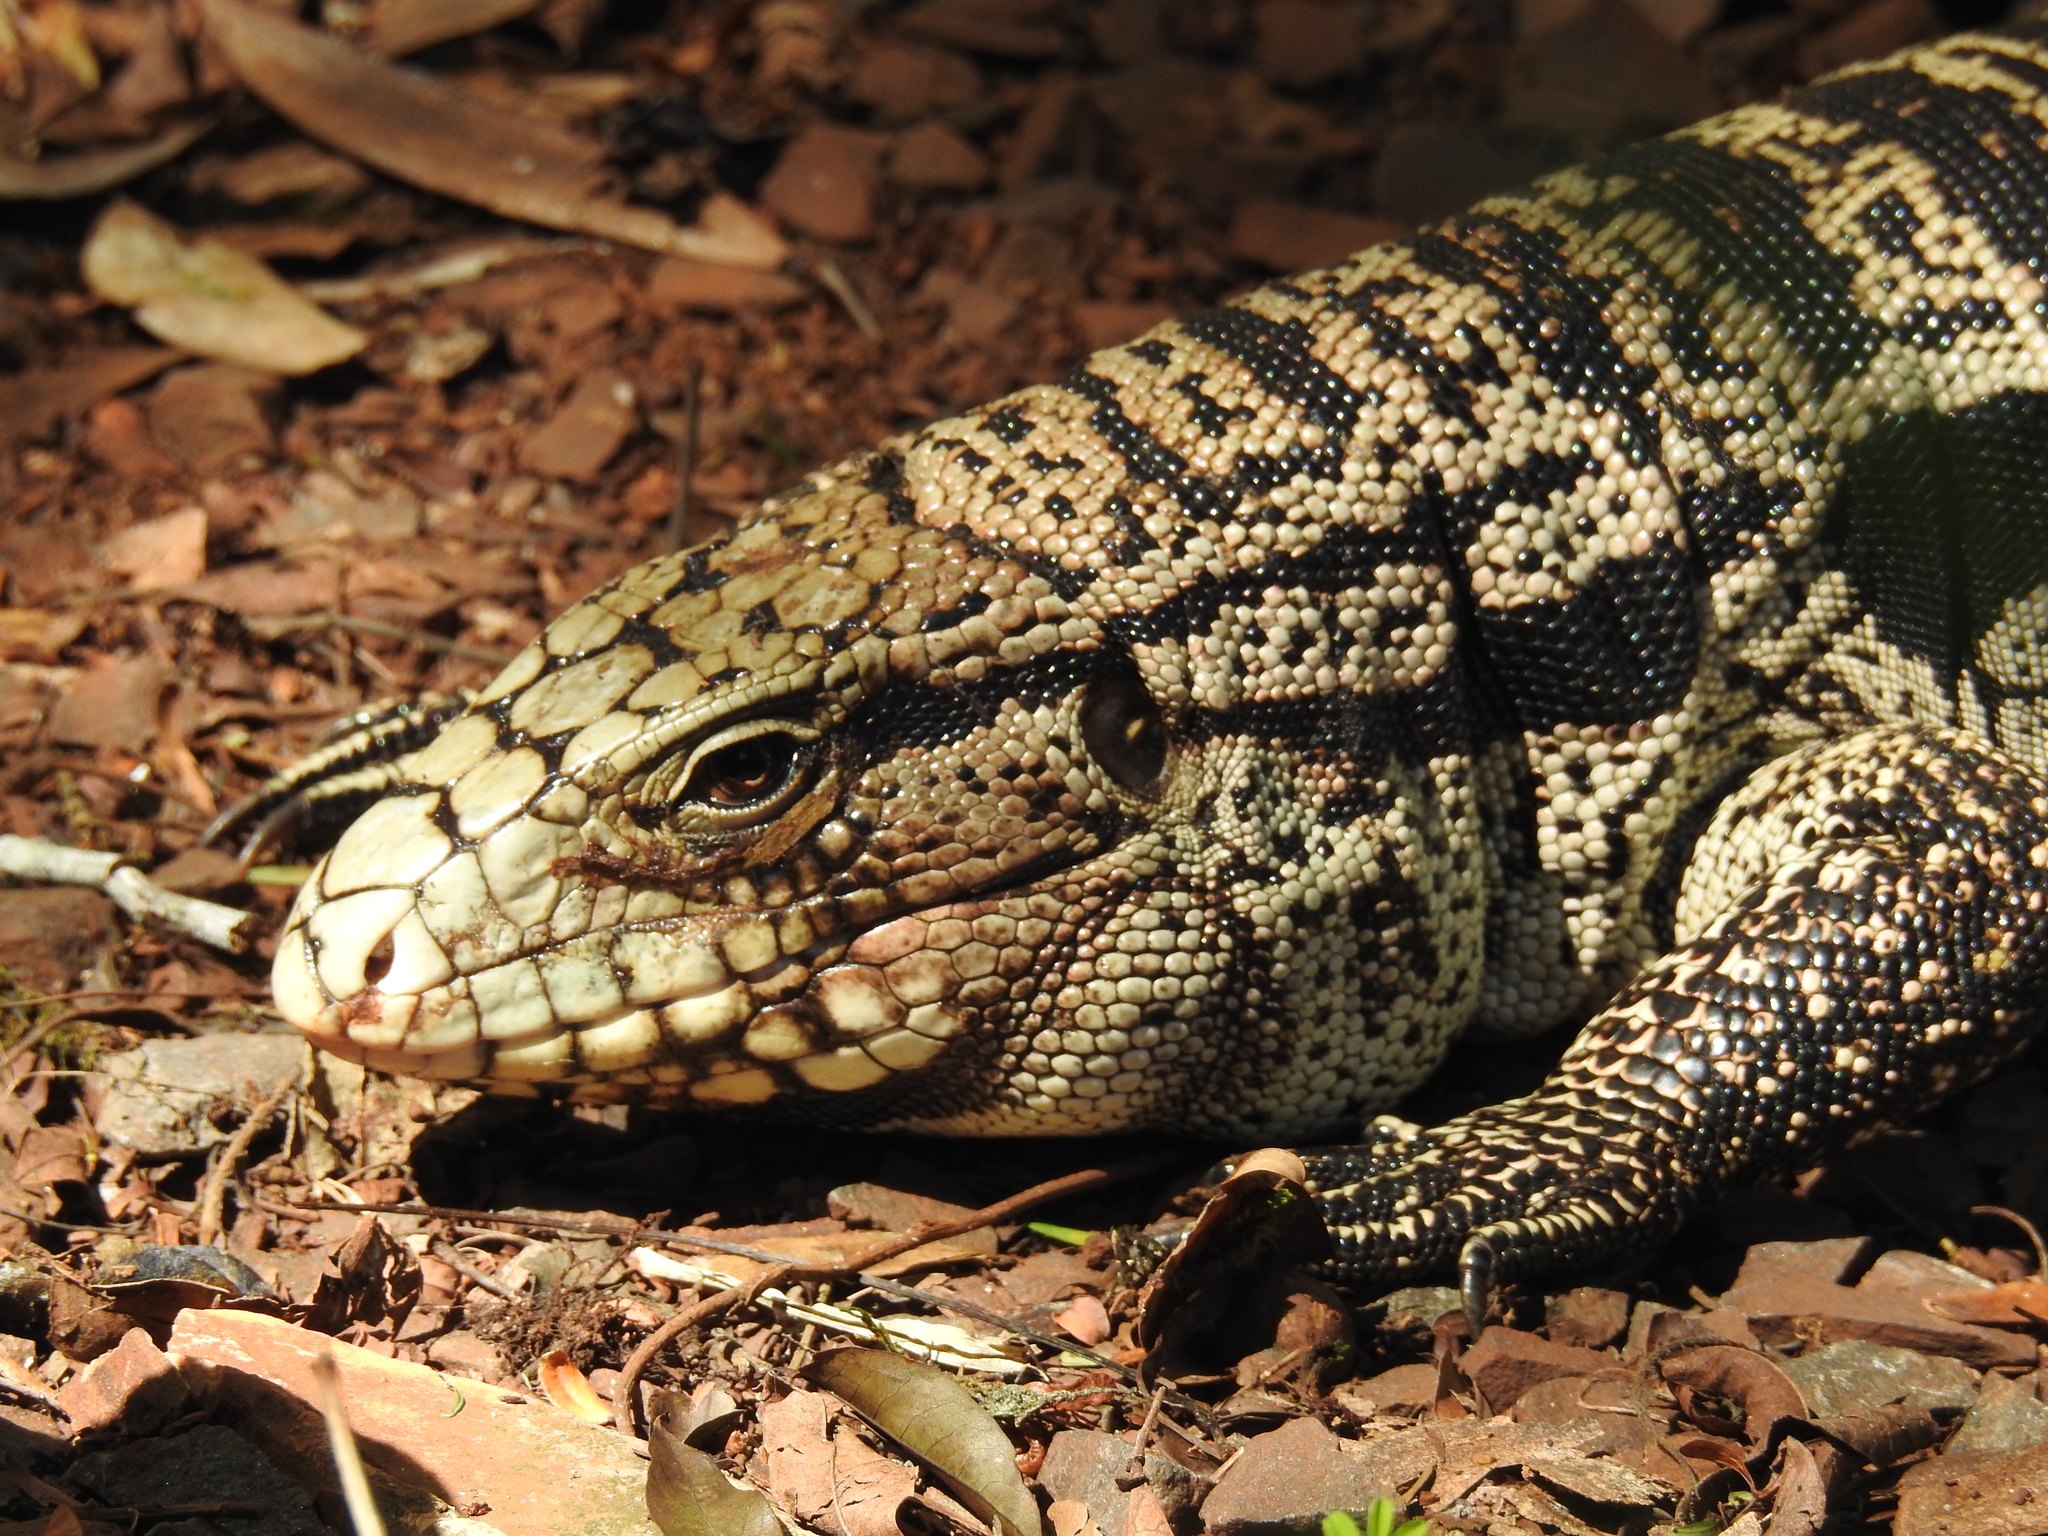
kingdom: Animalia
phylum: Chordata
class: Squamata
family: Teiidae
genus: Salvator
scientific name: Salvator merianae
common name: Argentine black and white tegu
